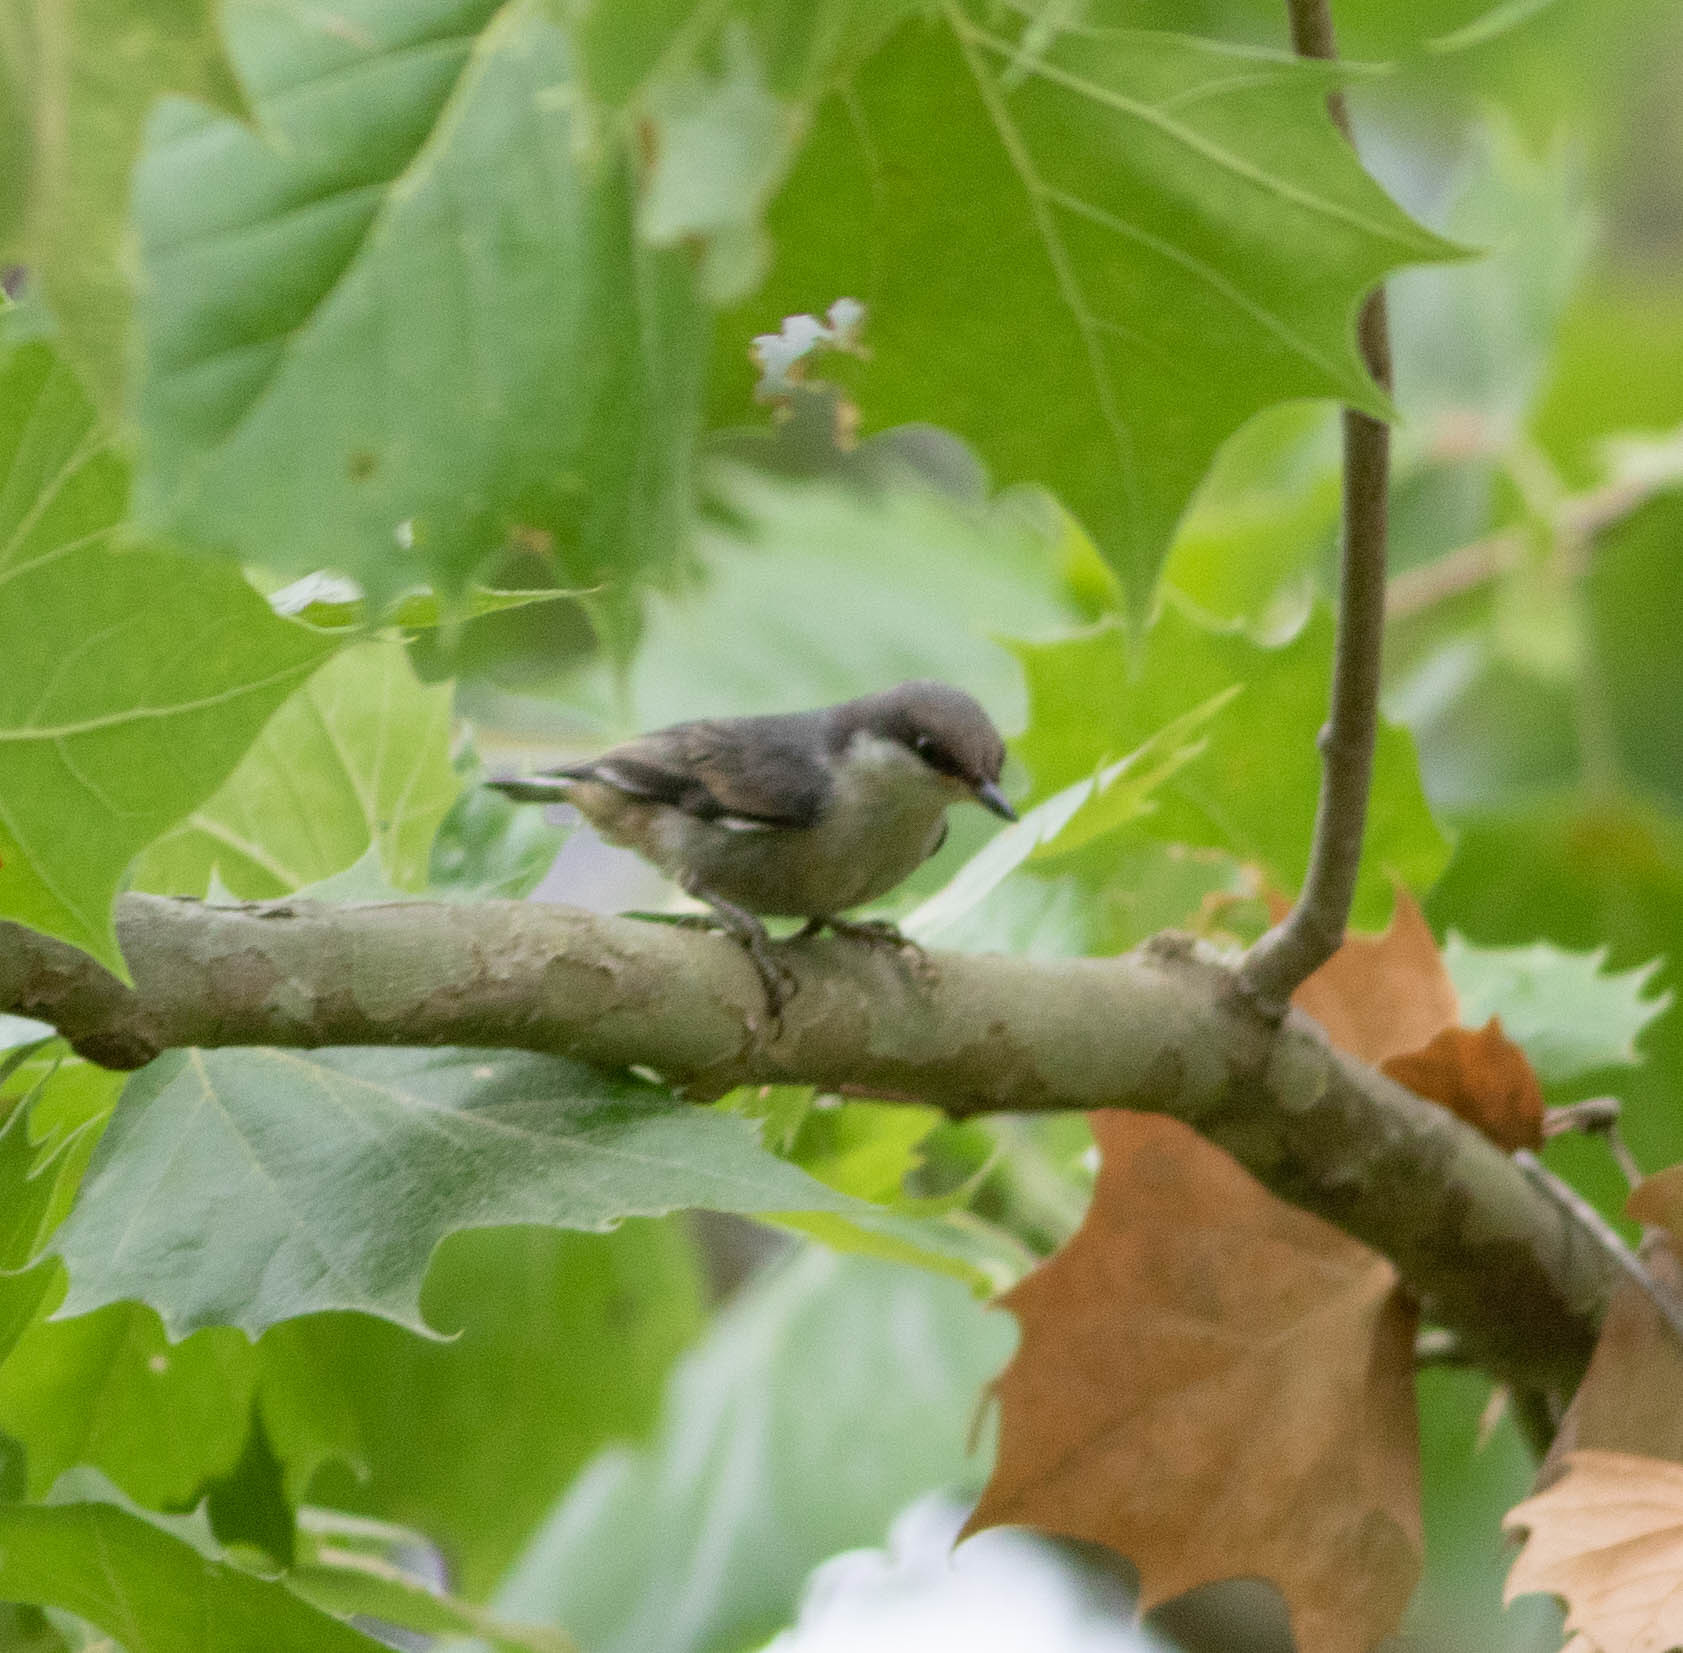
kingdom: Animalia
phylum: Chordata
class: Aves
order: Passeriformes
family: Sittidae
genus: Sitta
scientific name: Sitta pusilla
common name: Brown-headed nuthatch
